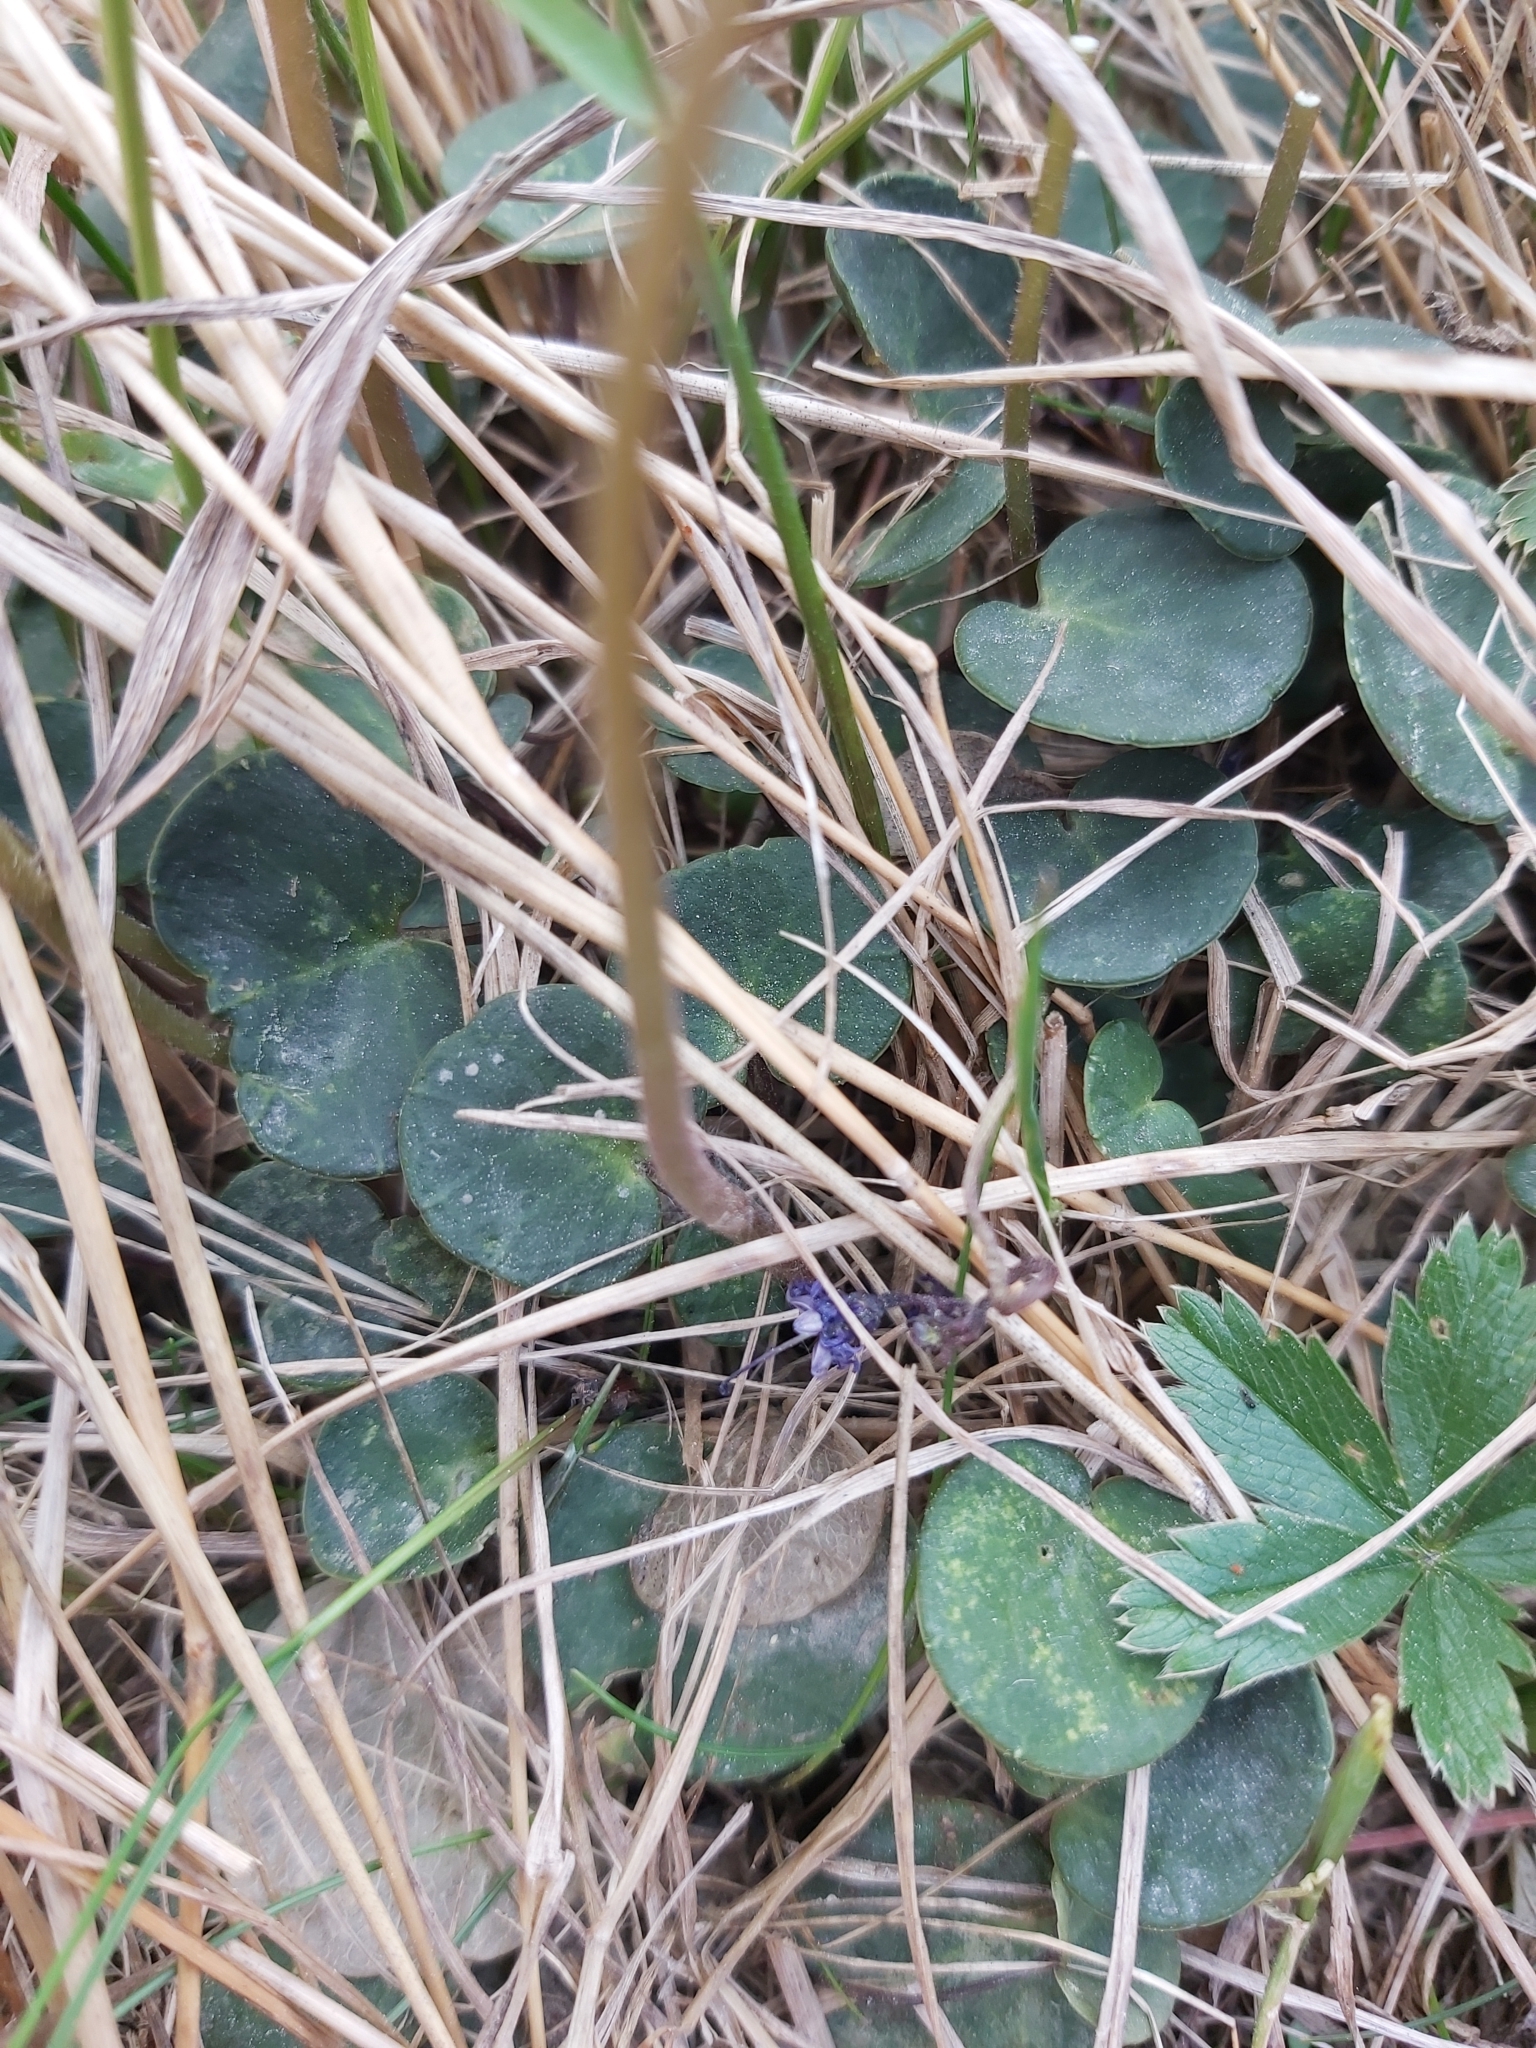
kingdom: Plantae
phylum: Tracheophyta
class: Magnoliopsida
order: Ericales
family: Primulaceae
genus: Soldanella
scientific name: Soldanella carpatica
